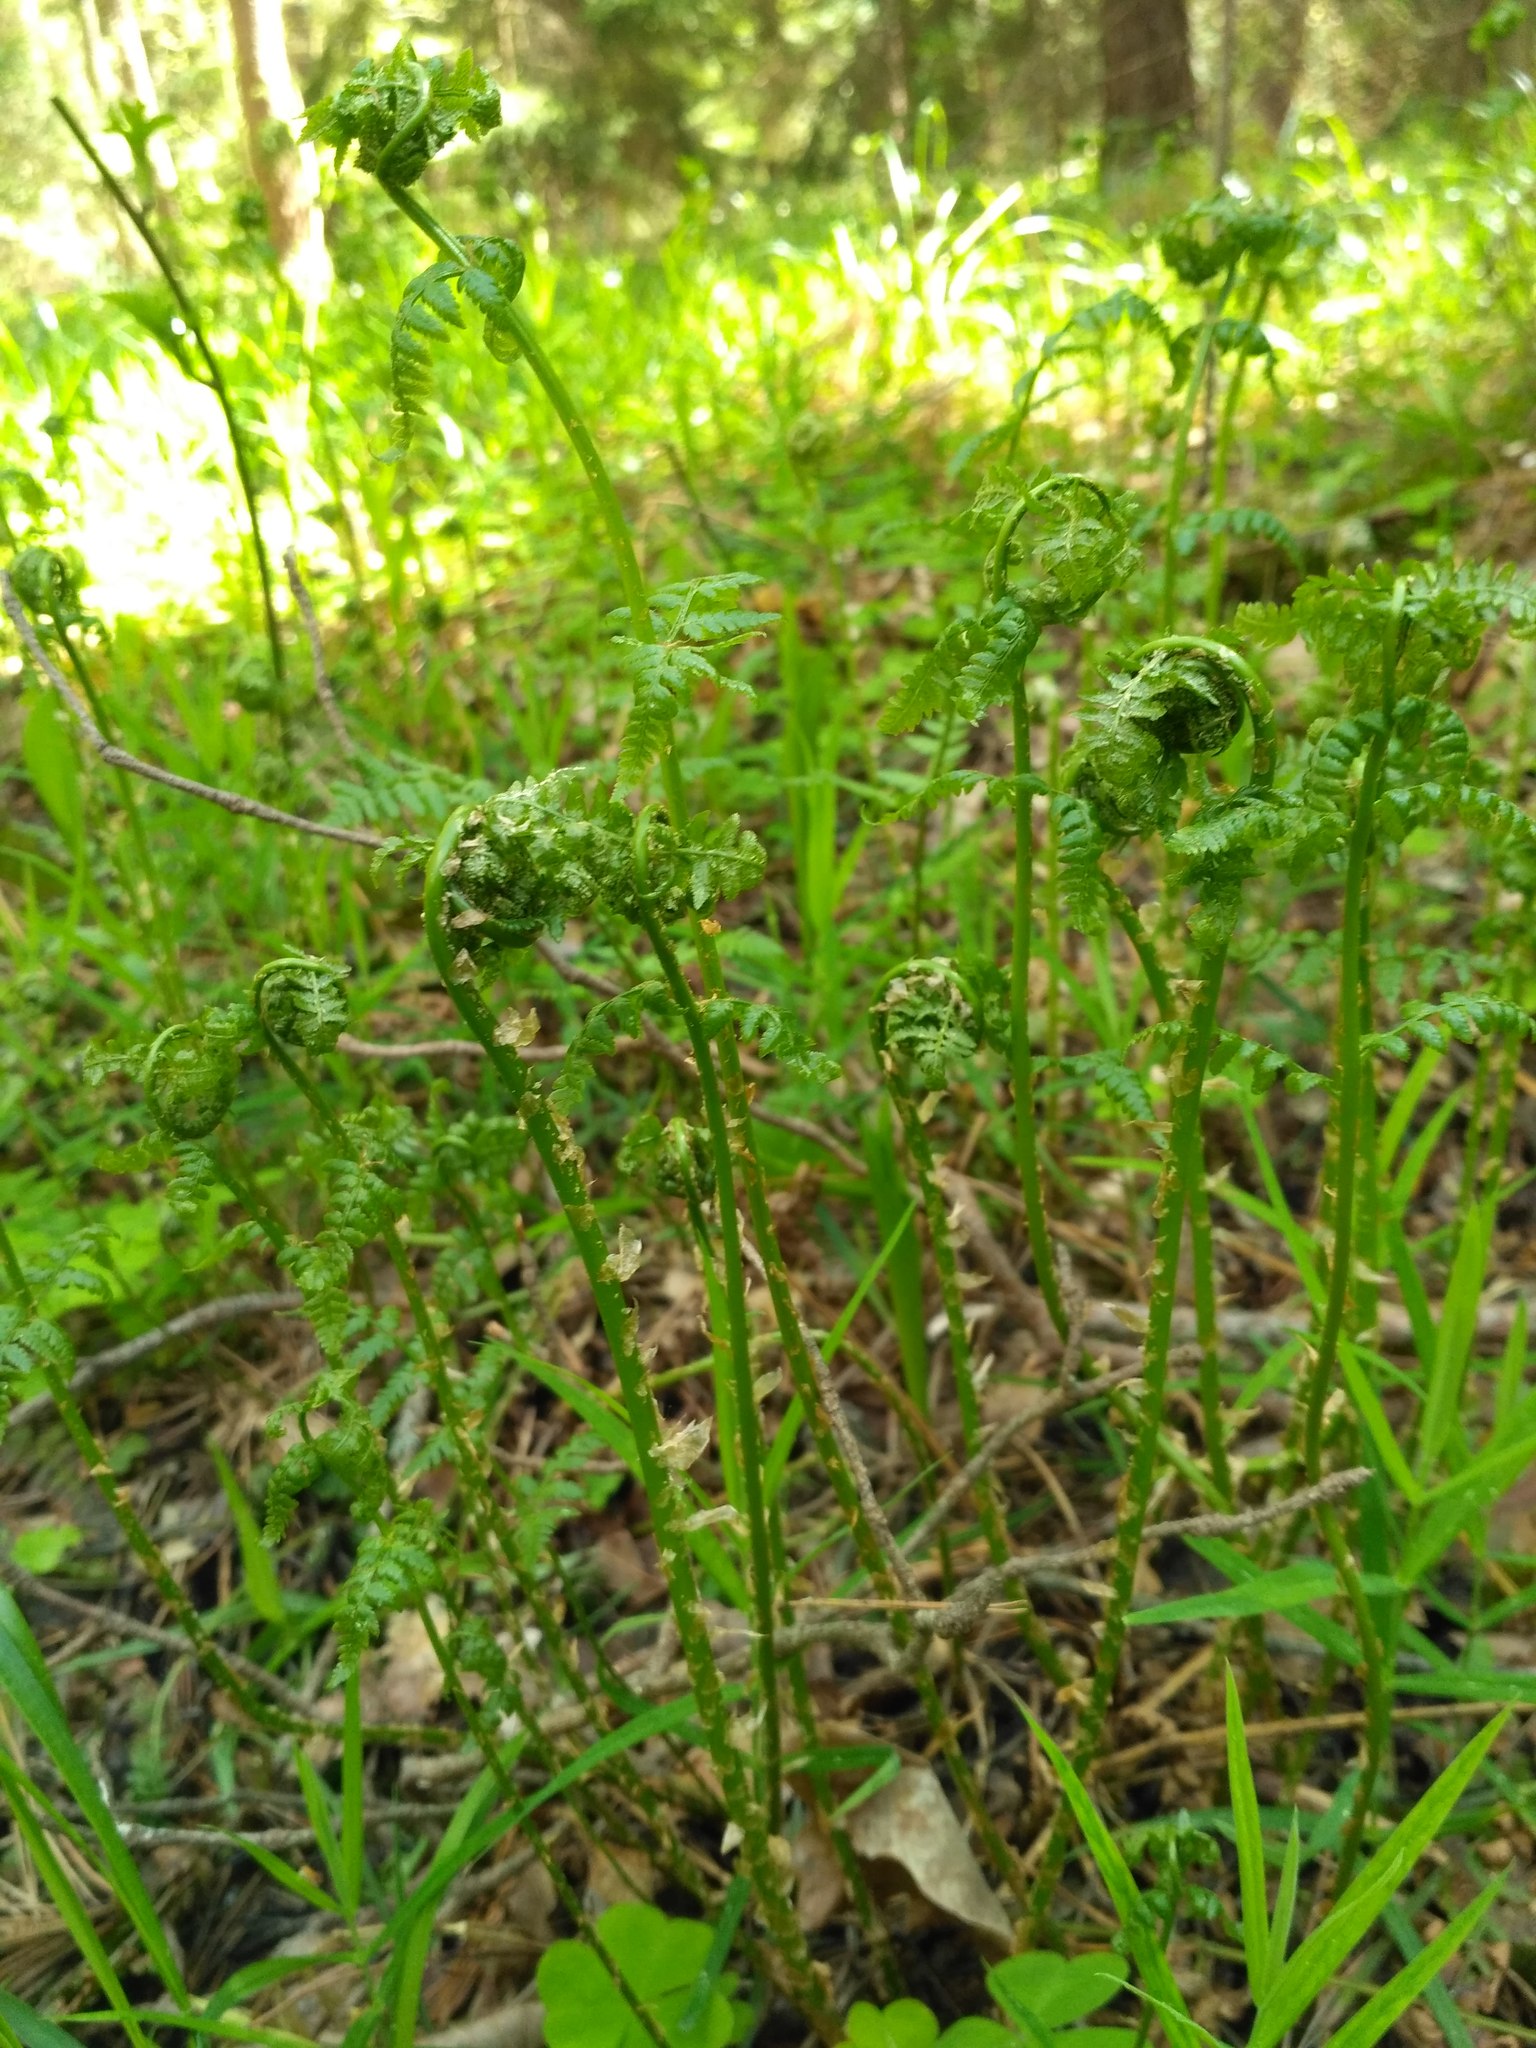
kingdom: Plantae
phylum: Tracheophyta
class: Polypodiopsida
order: Polypodiales
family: Dryopteridaceae
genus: Dryopteris
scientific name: Dryopteris carthusiana
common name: Narrow buckler-fern
